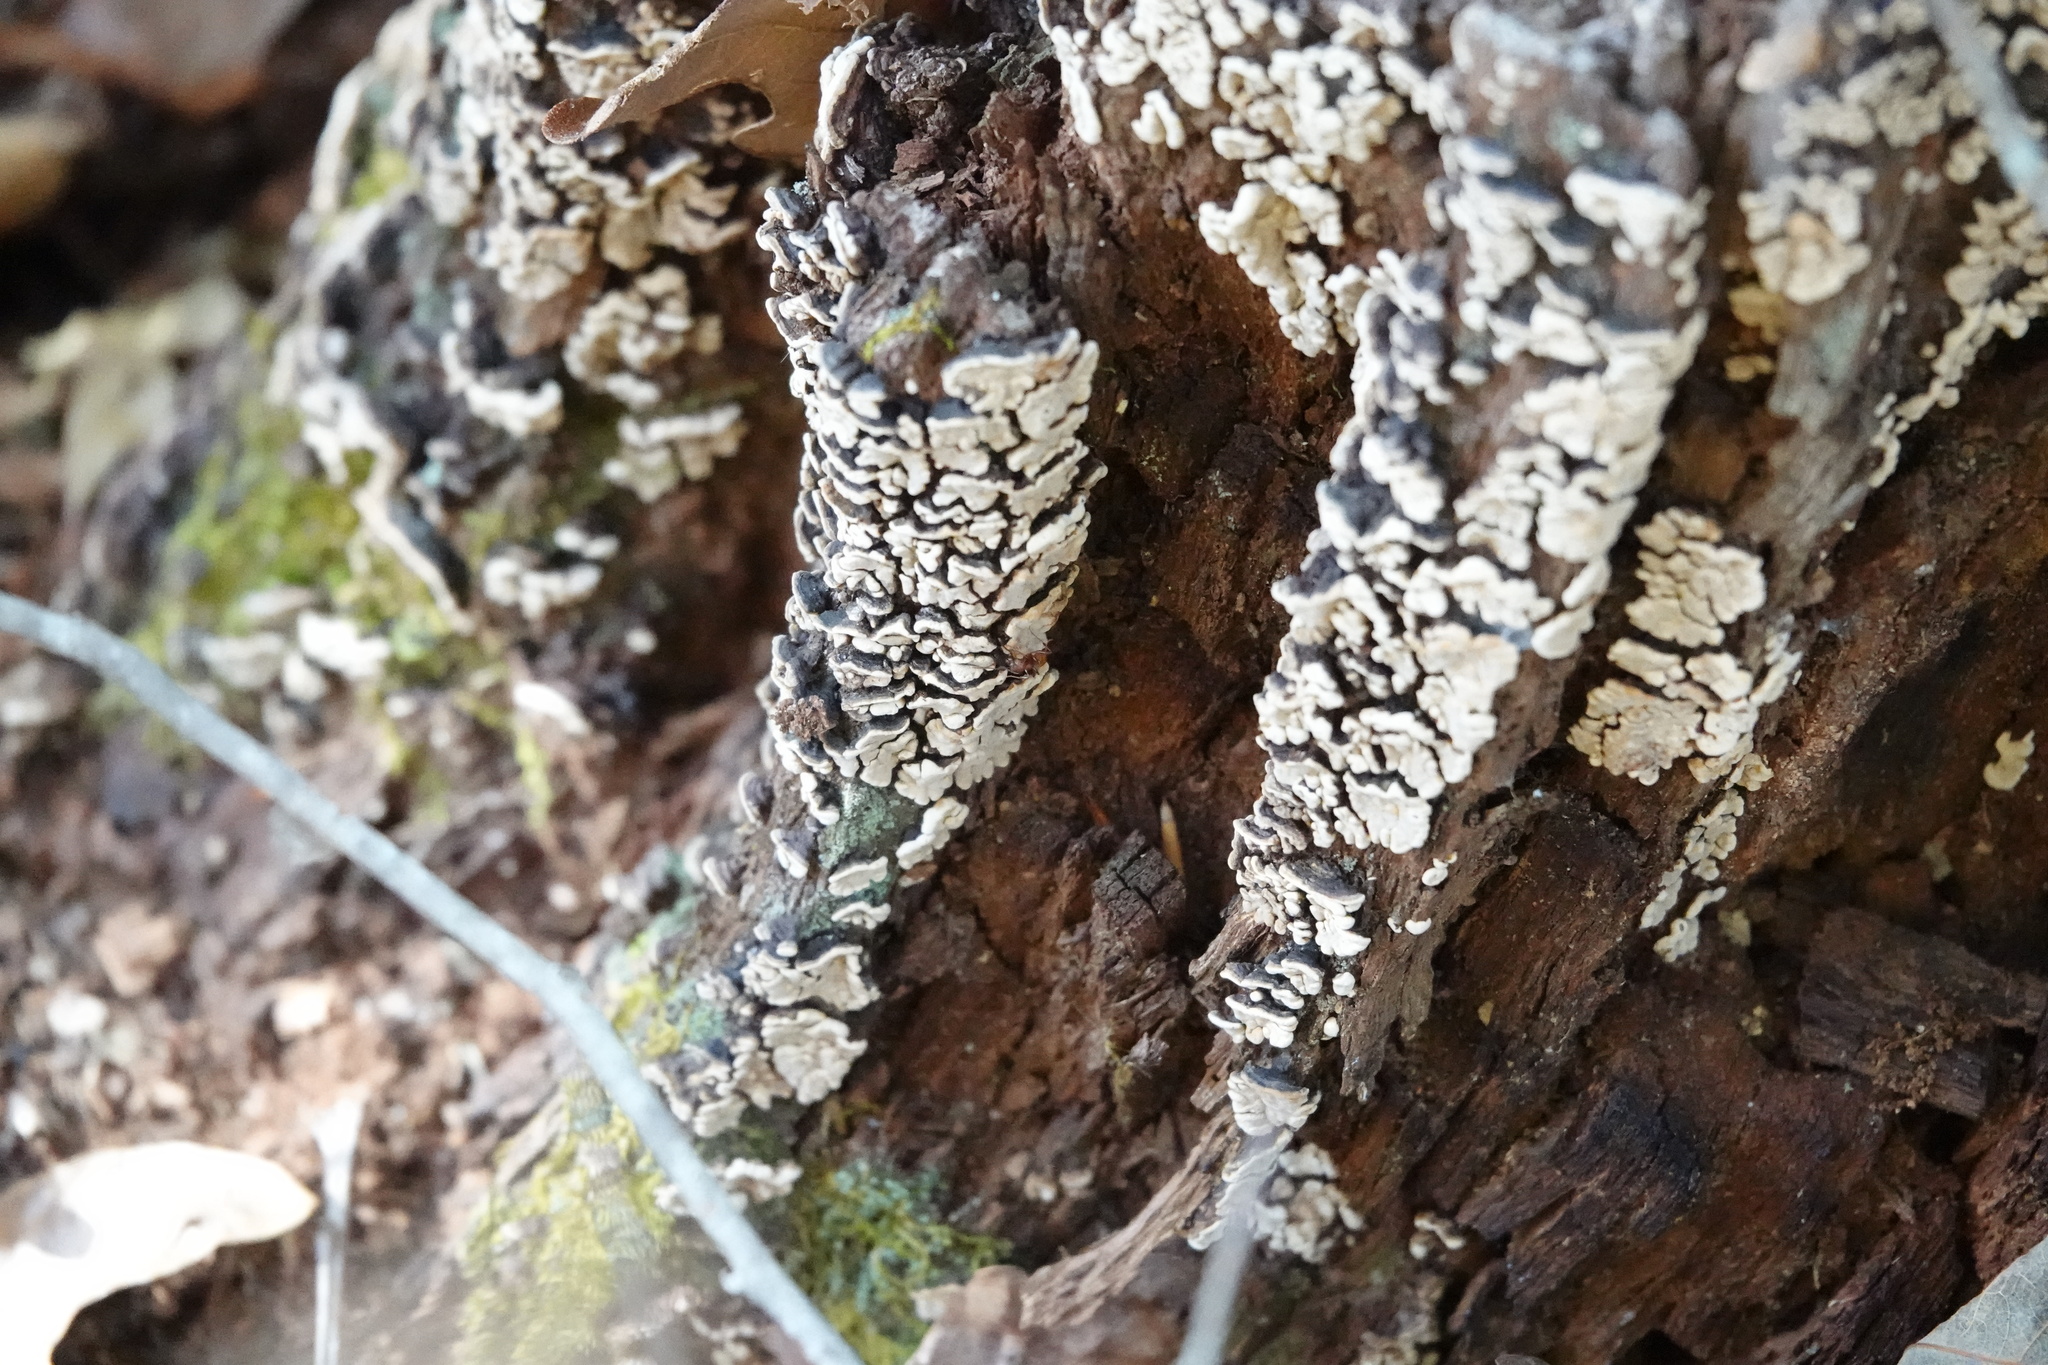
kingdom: Fungi
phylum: Basidiomycota
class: Agaricomycetes
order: Russulales
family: Stereaceae
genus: Xylobolus
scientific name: Xylobolus frustulatus
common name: Ceramic parchment
